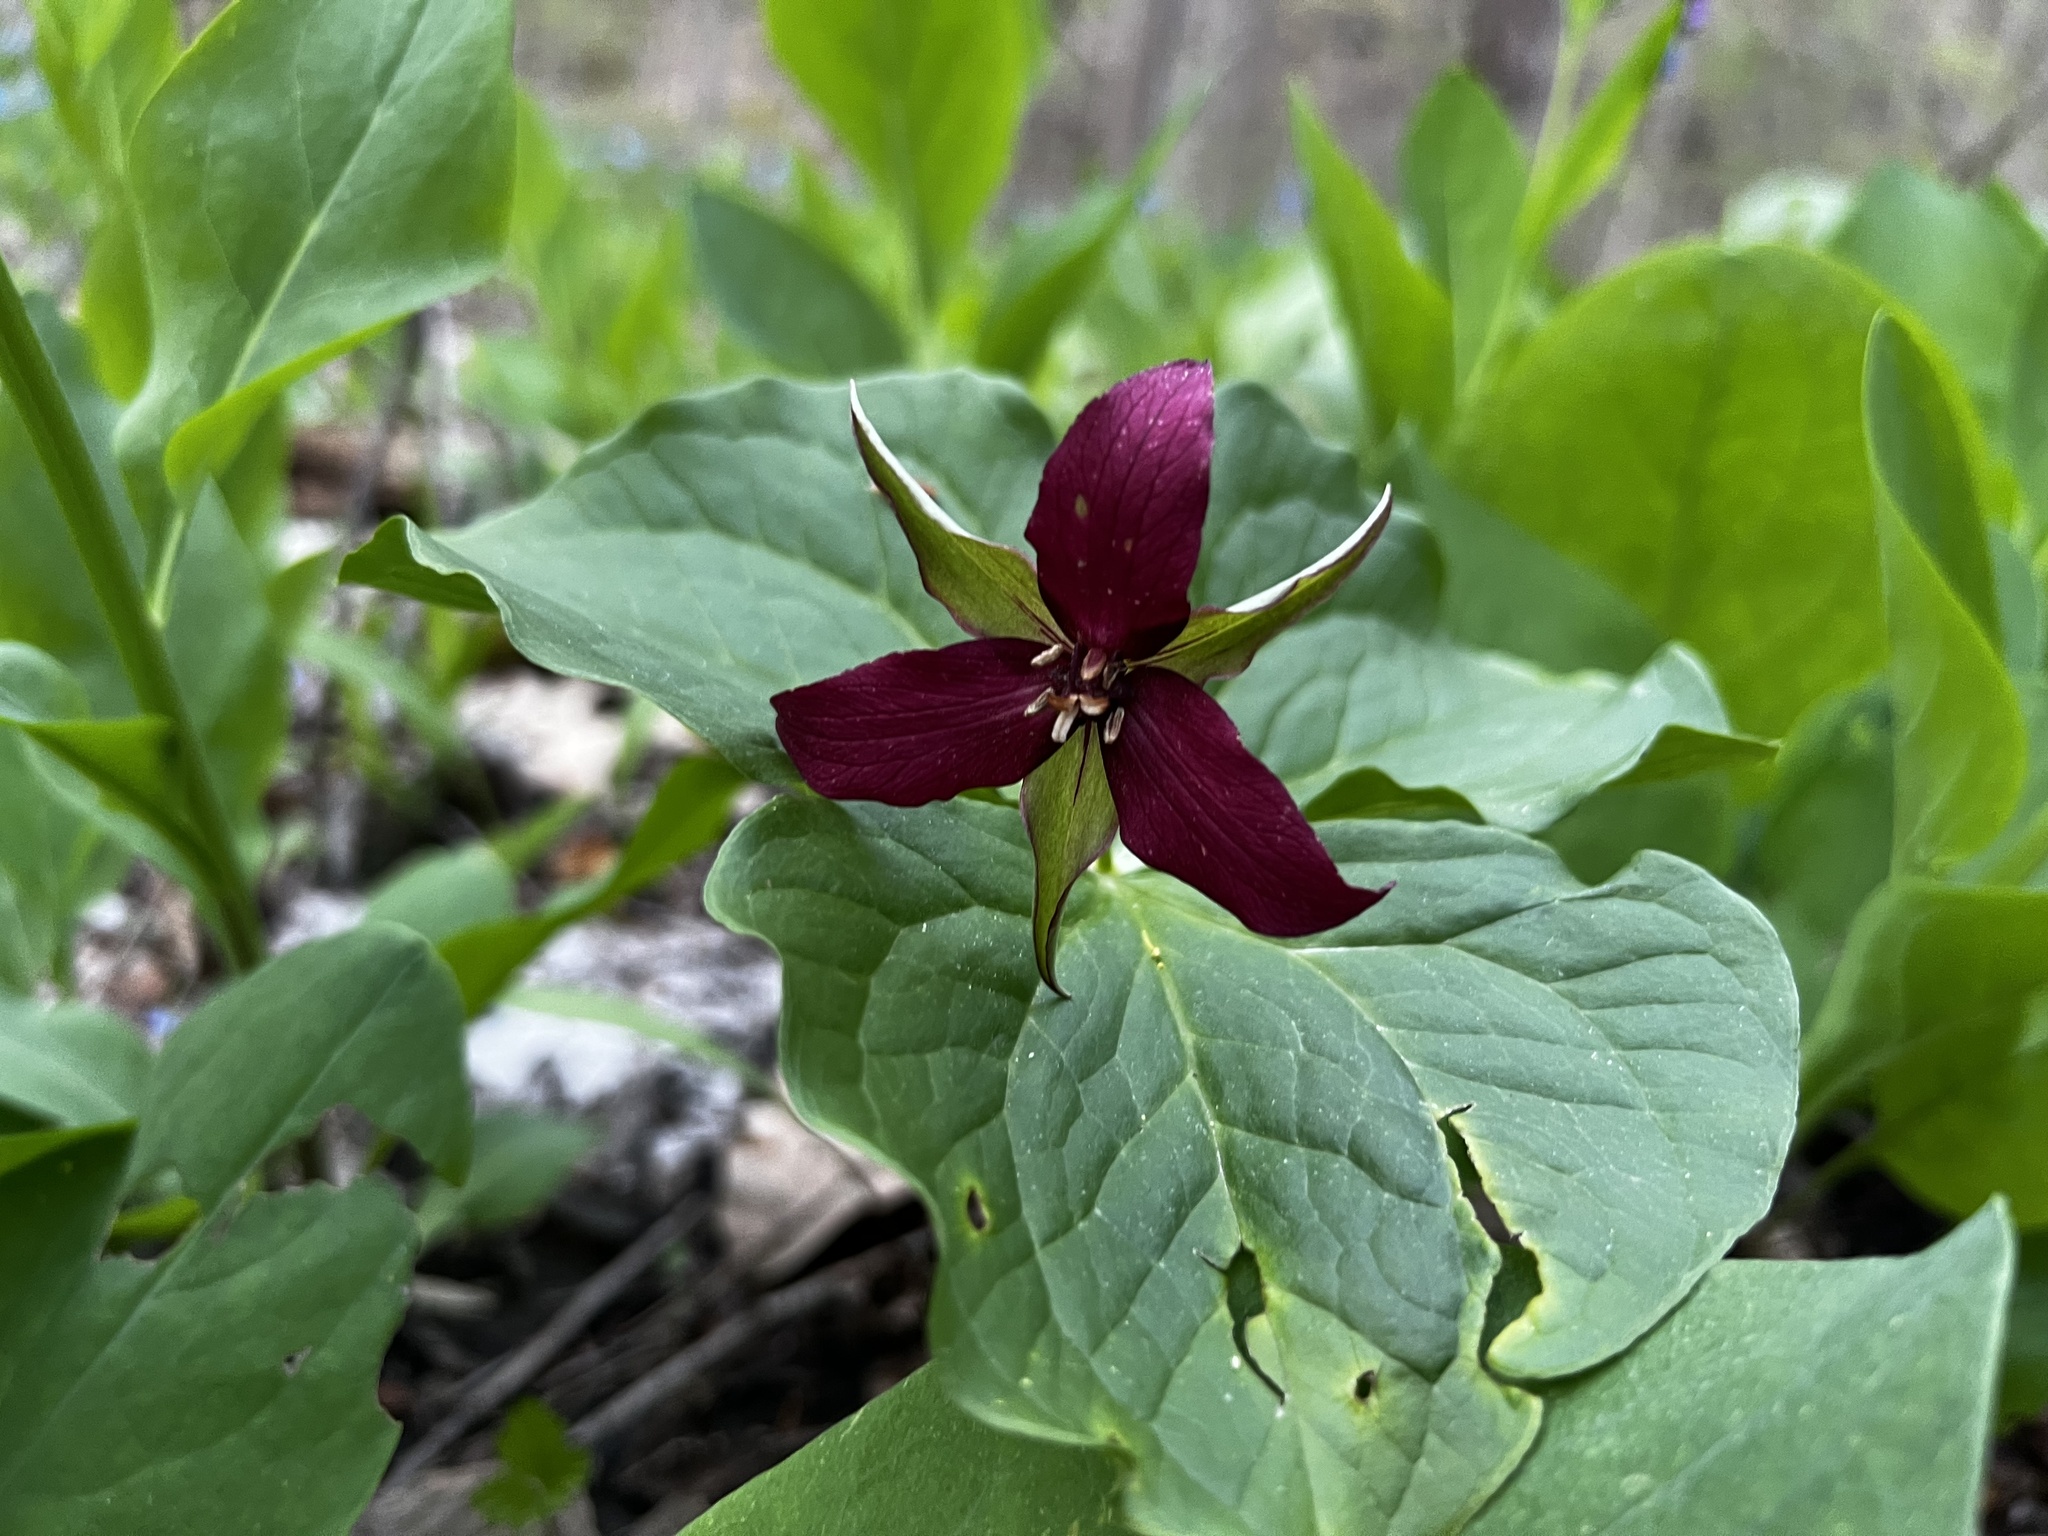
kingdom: Plantae
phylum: Tracheophyta
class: Liliopsida
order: Liliales
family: Melanthiaceae
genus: Trillium
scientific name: Trillium erectum
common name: Purple trillium
